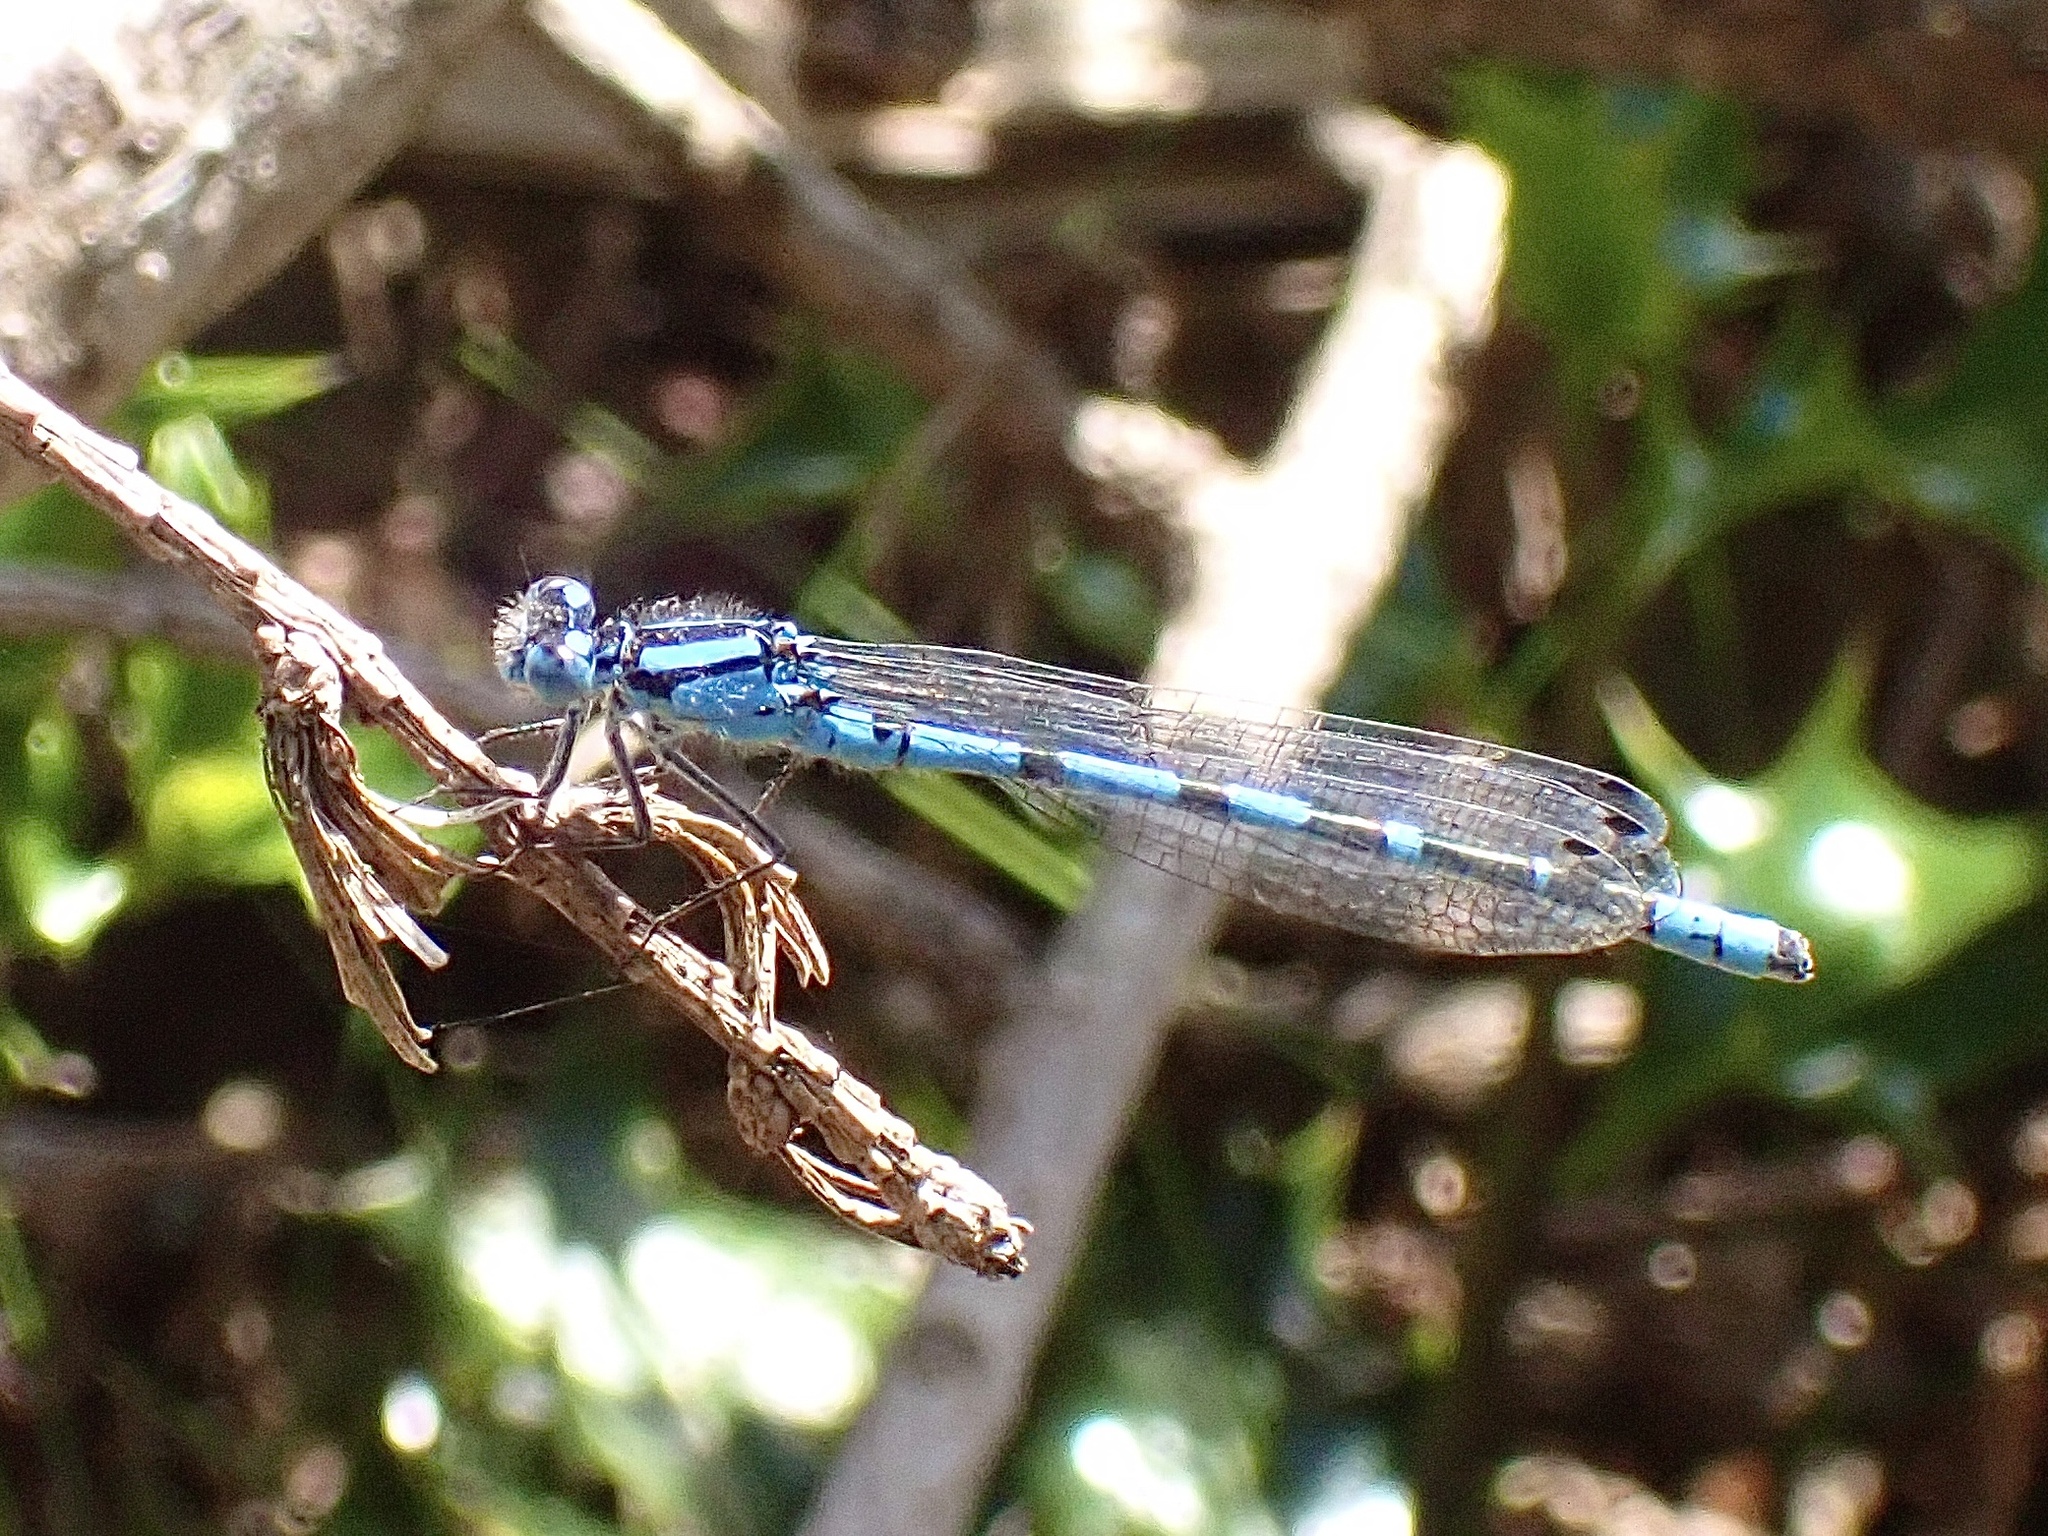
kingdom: Animalia
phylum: Arthropoda
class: Insecta
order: Odonata
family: Coenagrionidae
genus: Enallagma
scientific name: Enallagma cyathigerum
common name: Common blue damselfly
